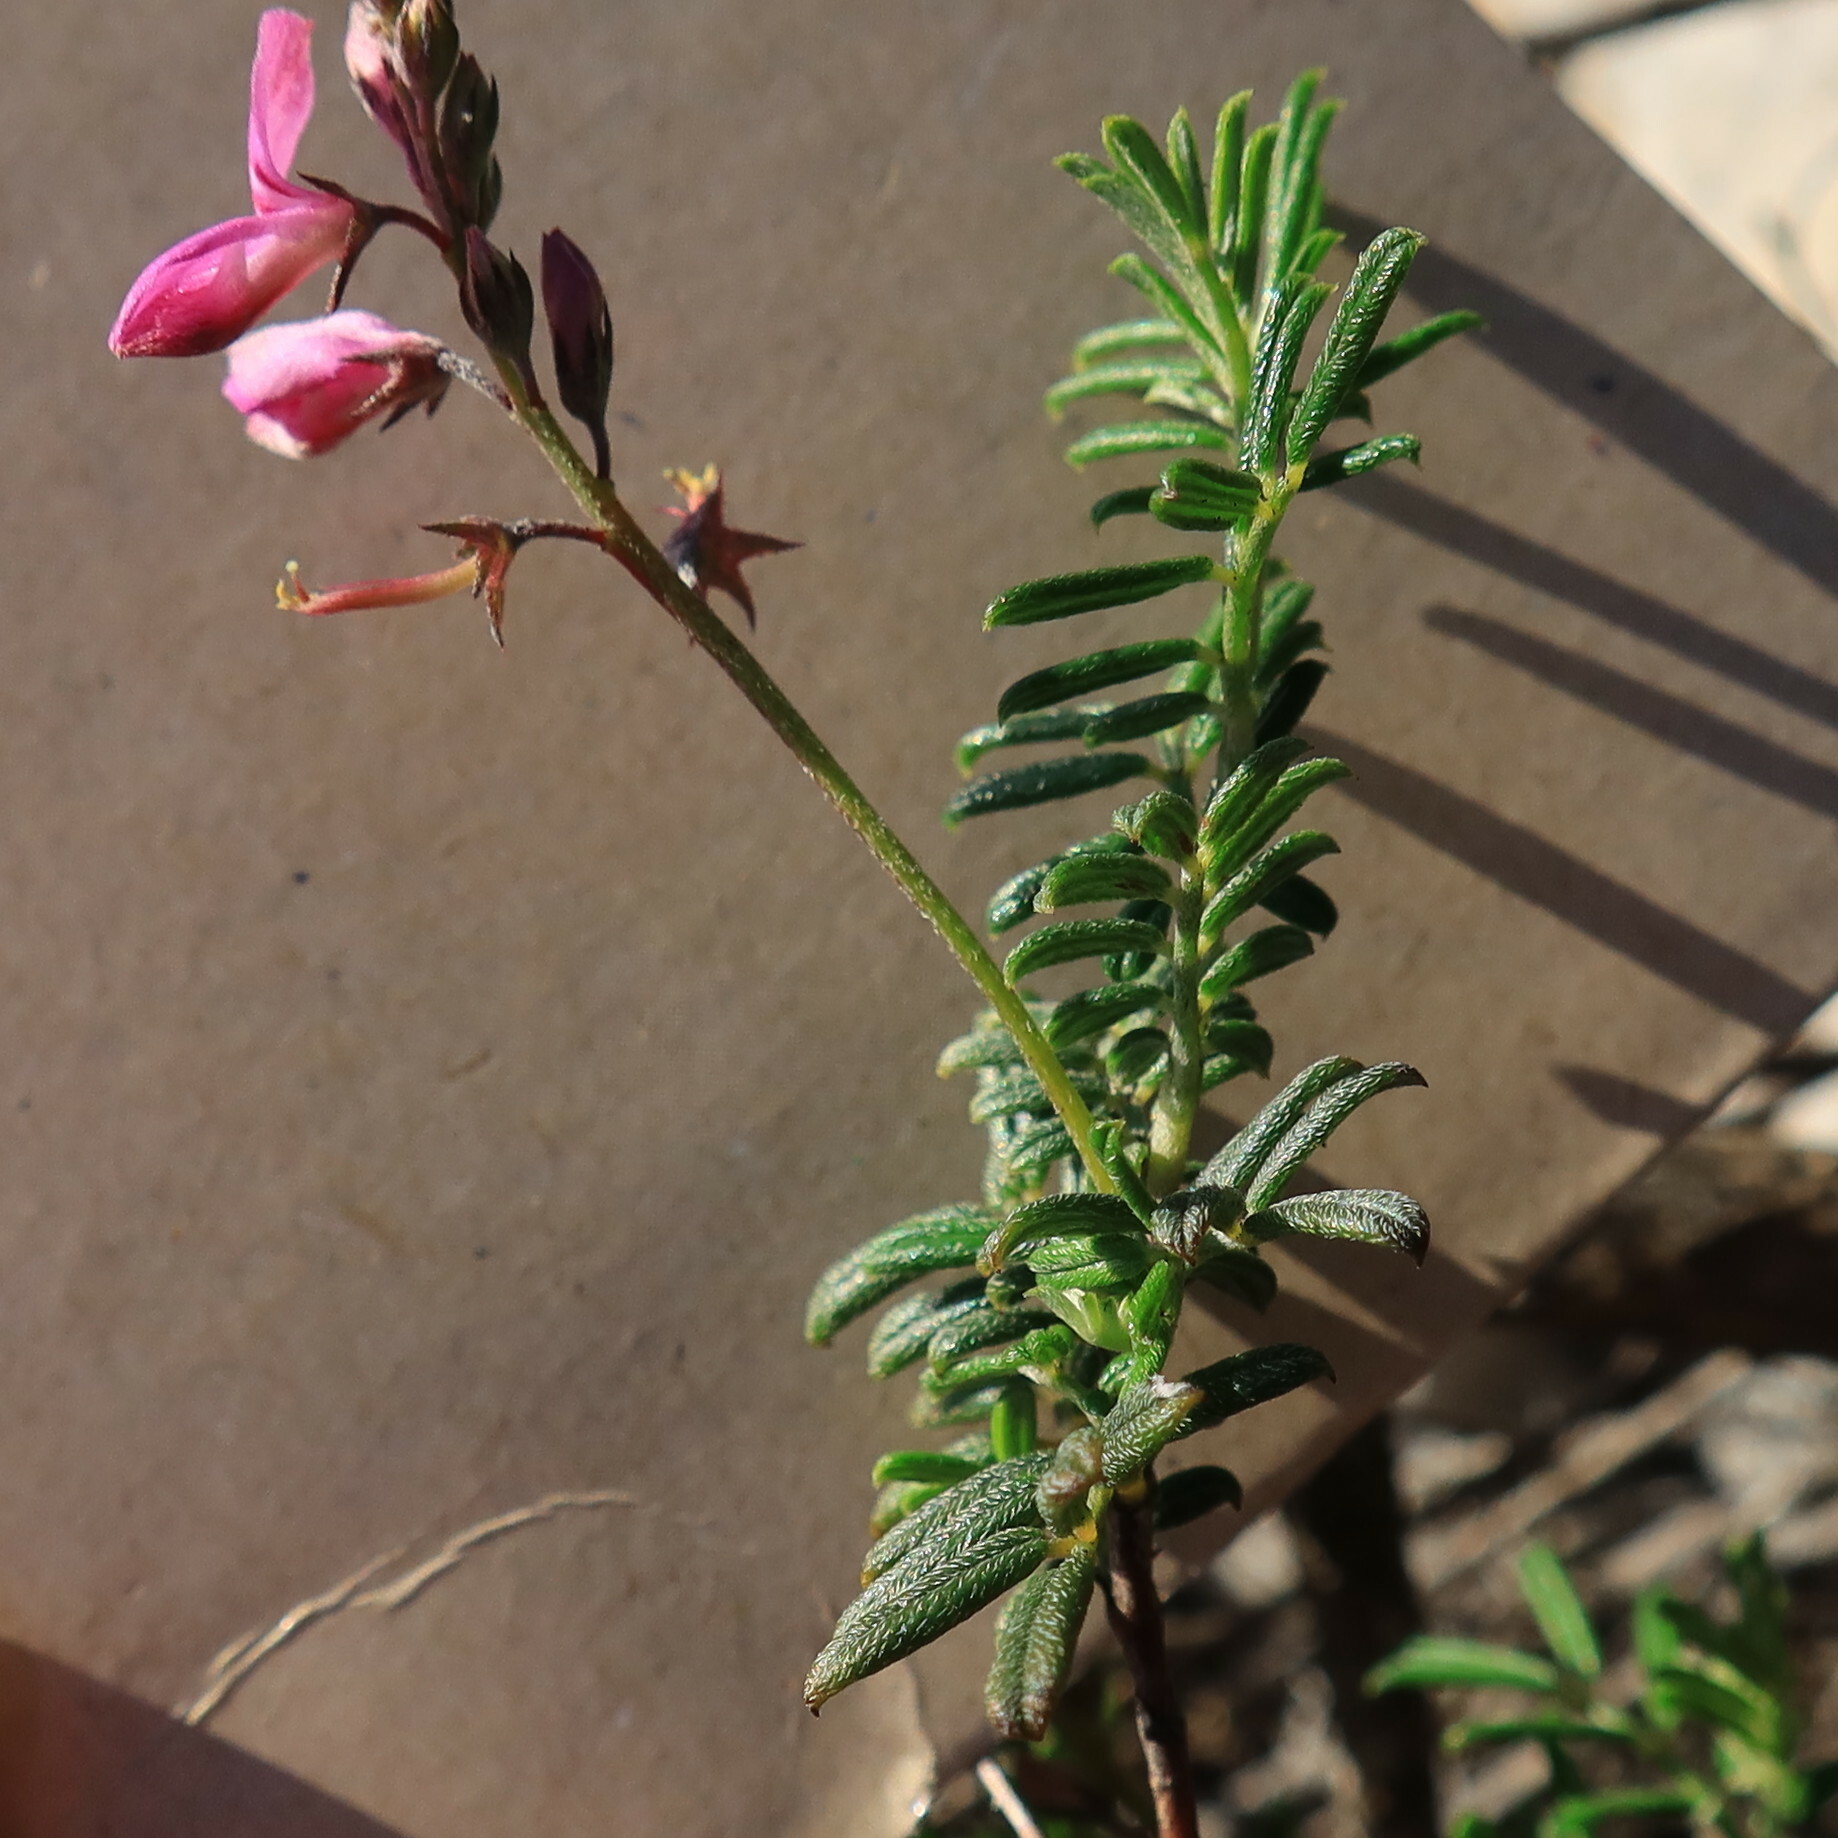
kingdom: Plantae
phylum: Tracheophyta
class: Magnoliopsida
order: Fabales
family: Fabaceae
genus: Indigofera
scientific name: Indigofera angustifolia
